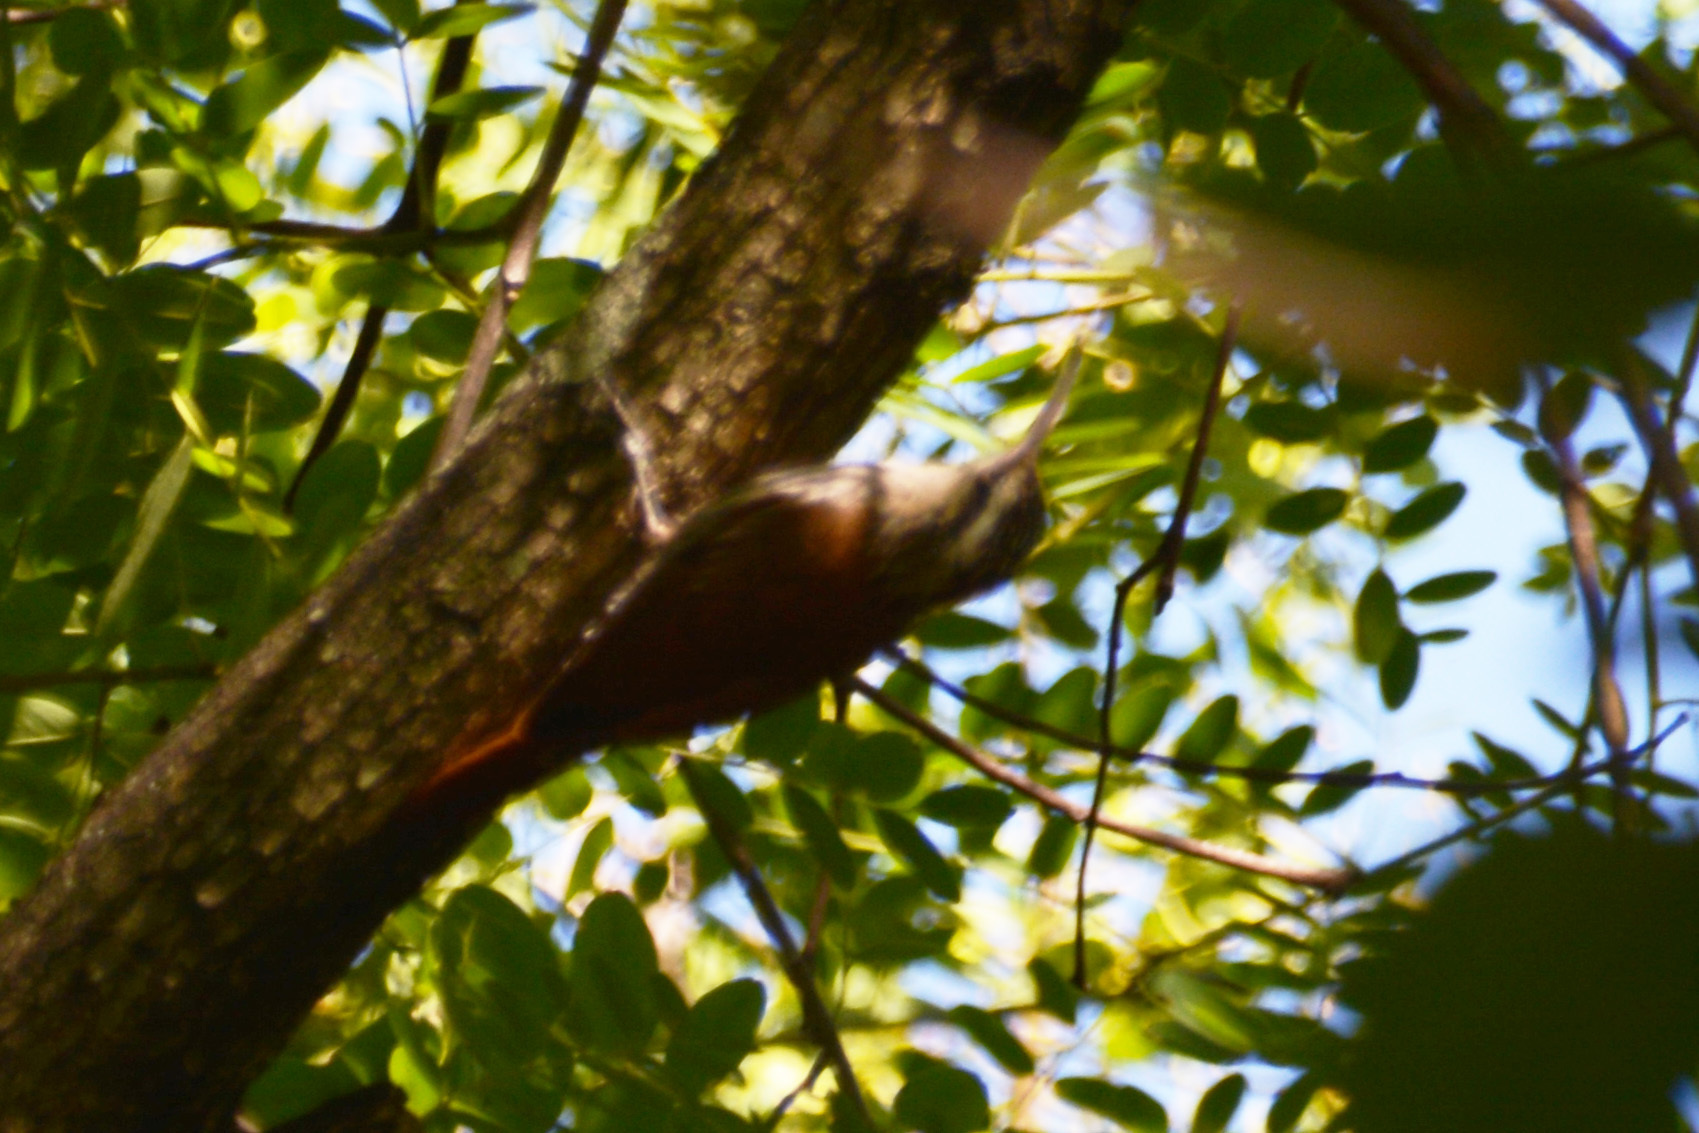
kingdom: Animalia
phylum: Chordata
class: Aves
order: Passeriformes
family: Furnariidae
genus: Lepidocolaptes
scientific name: Lepidocolaptes angustirostris
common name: Narrow-billed woodcreeper
